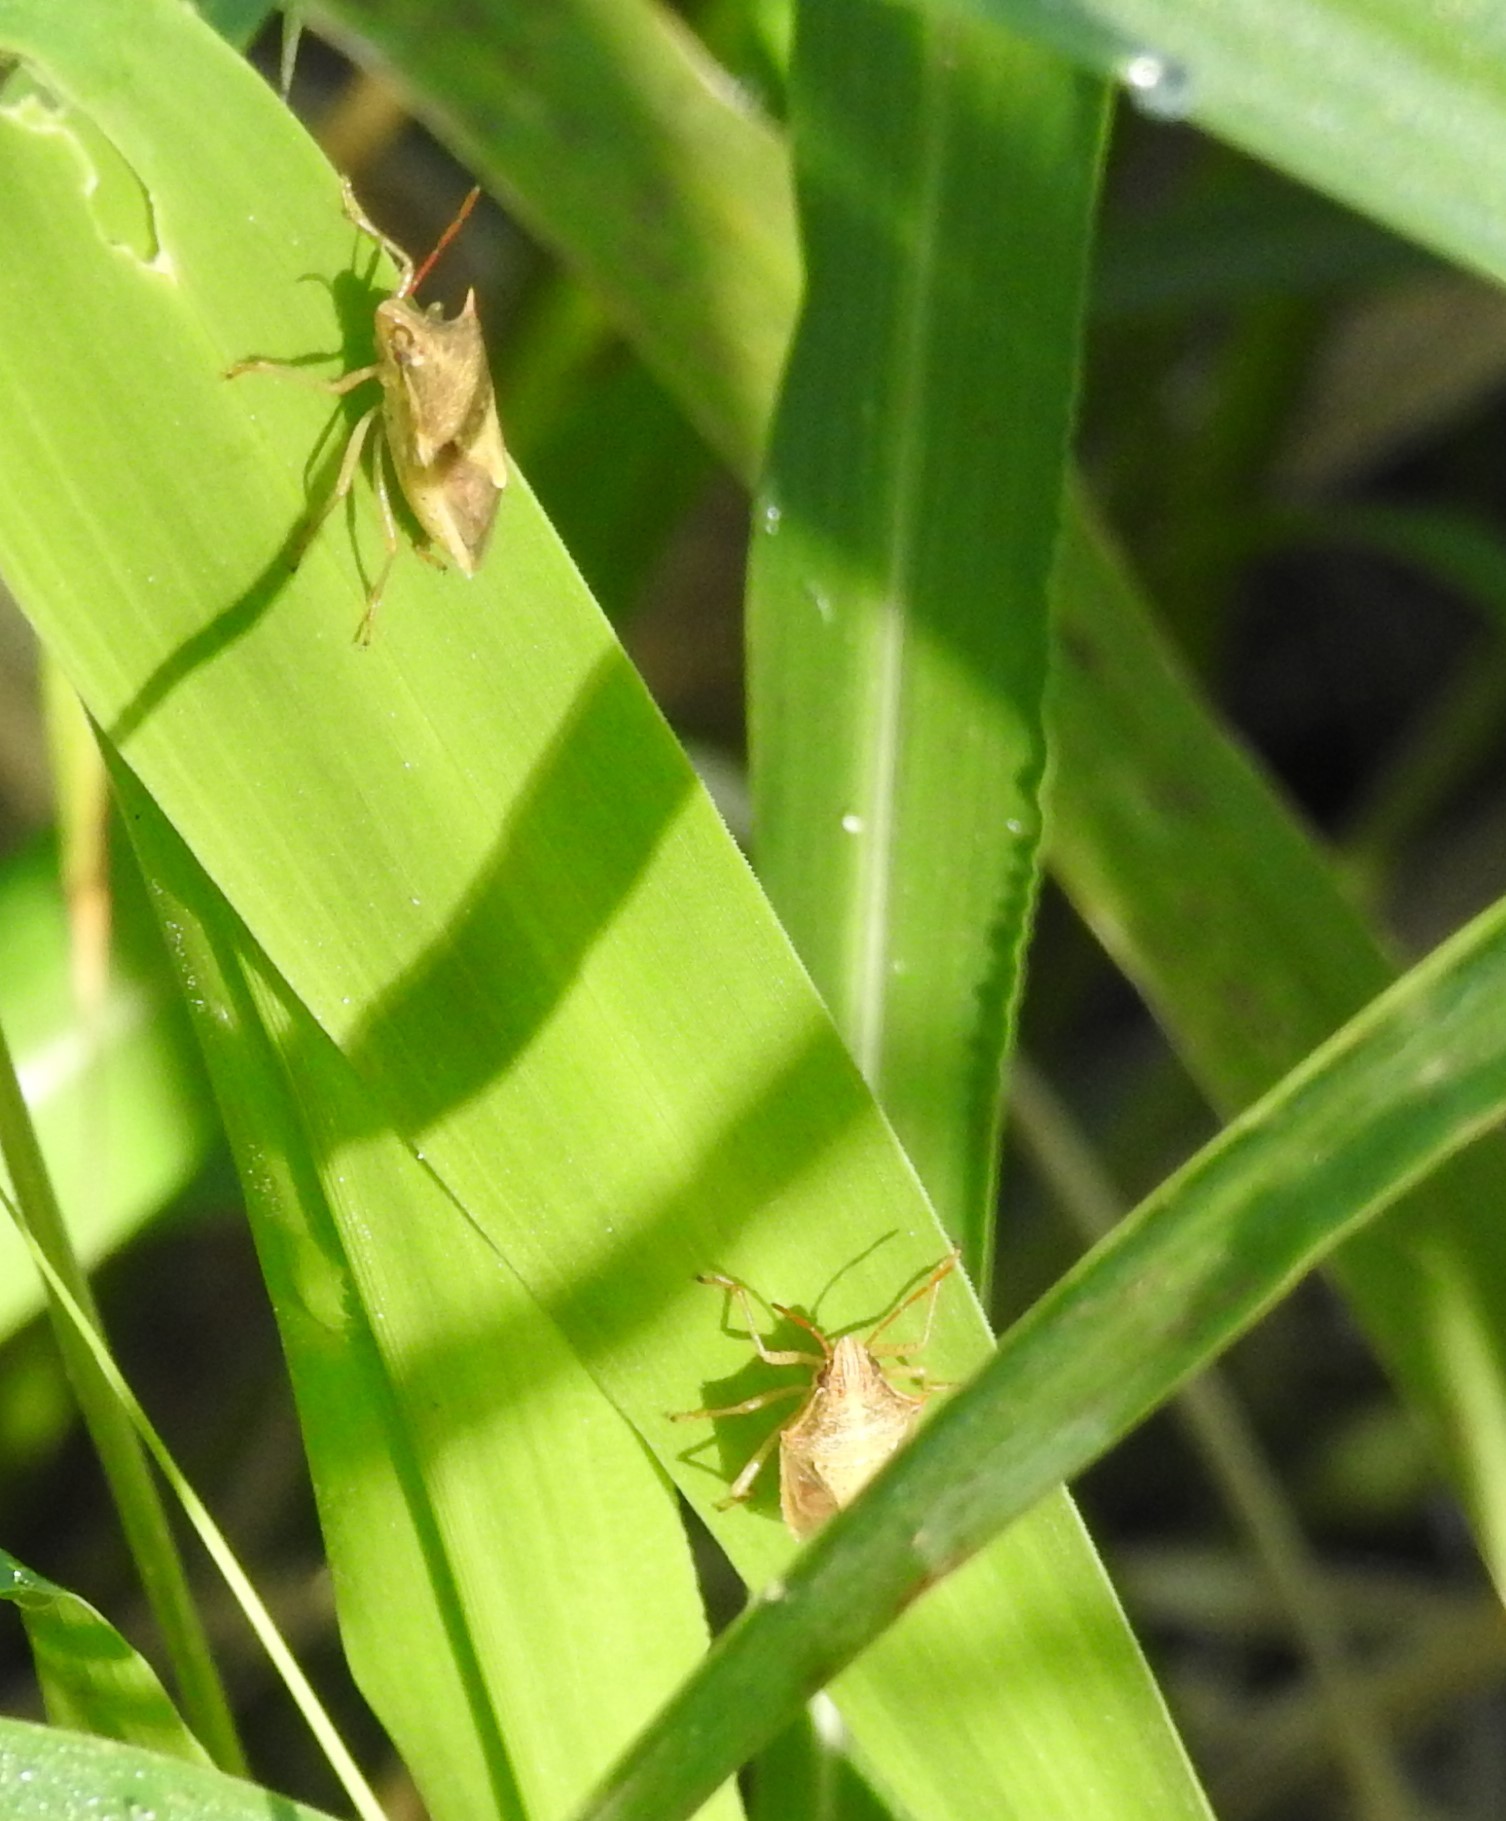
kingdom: Animalia
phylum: Arthropoda
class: Insecta
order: Hemiptera
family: Pentatomidae
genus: Oebalus
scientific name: Oebalus pugnax
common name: Rice stink bug
